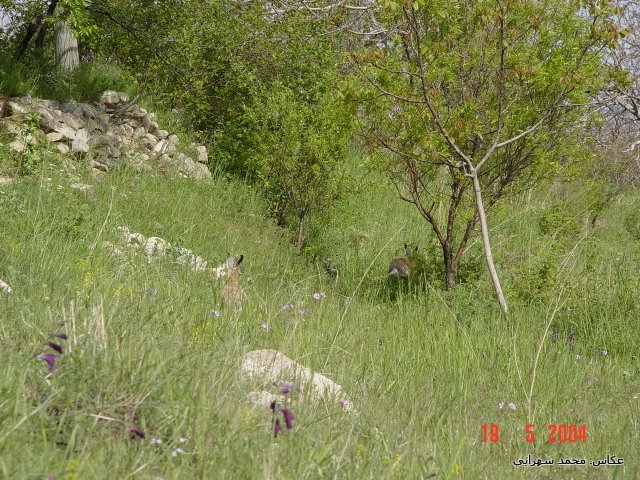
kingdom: Animalia
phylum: Chordata
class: Mammalia
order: Lagomorpha
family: Leporidae
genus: Lepus
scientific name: Lepus europaeus
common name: European hare
